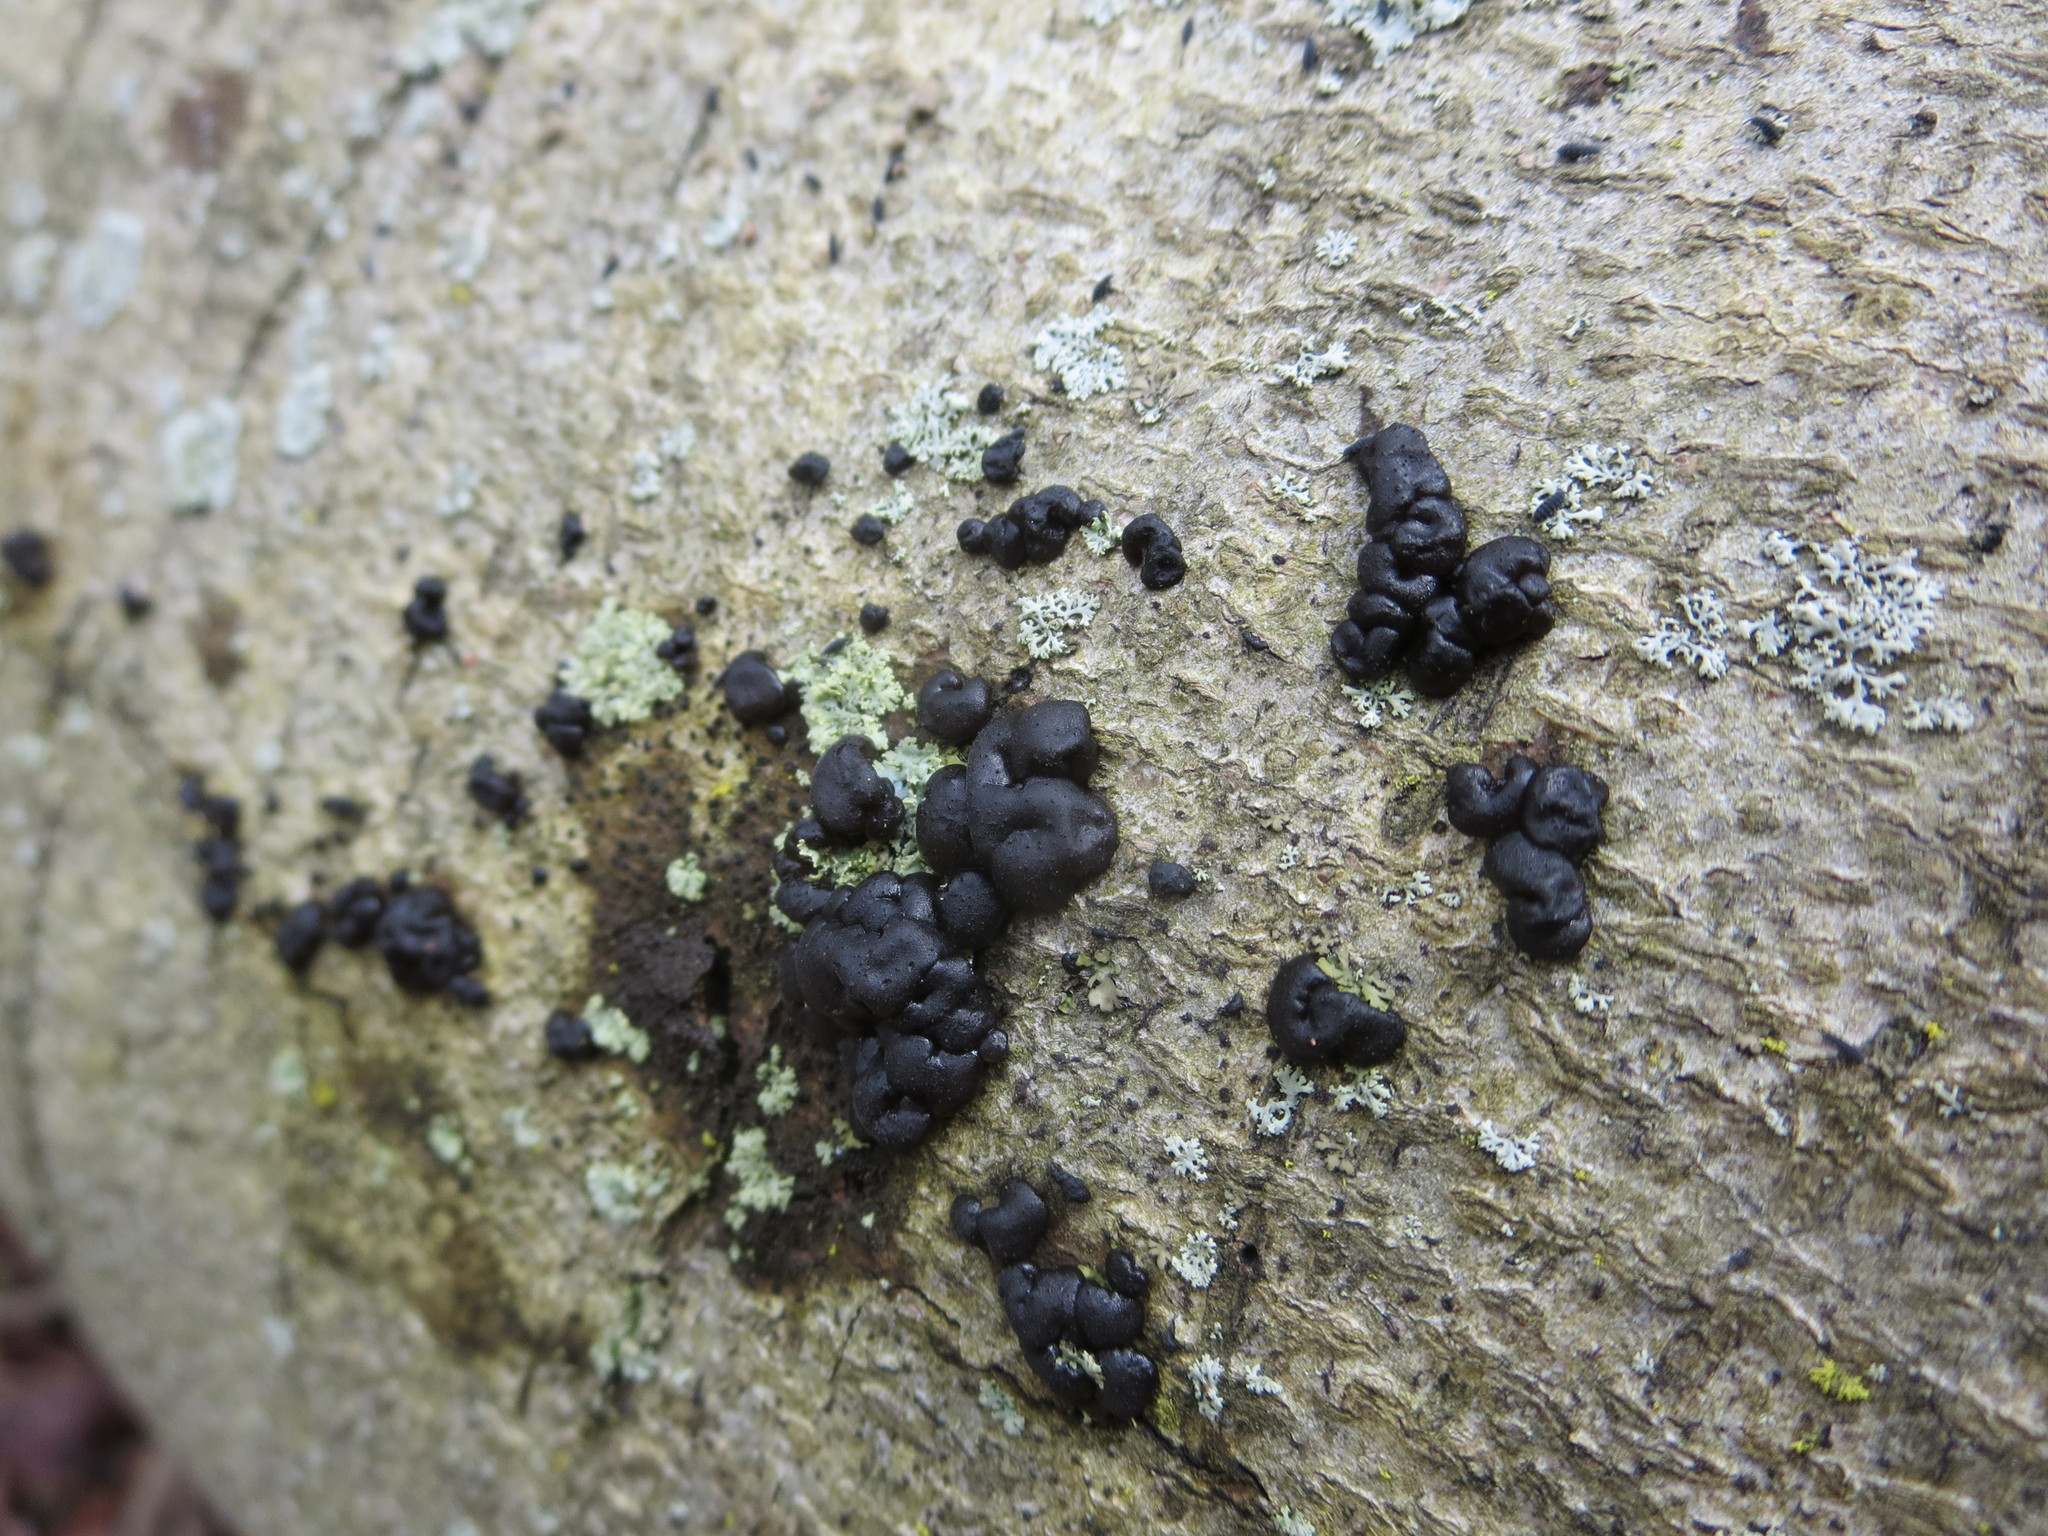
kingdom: Fungi
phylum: Basidiomycota
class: Agaricomycetes
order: Auriculariales
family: Auriculariaceae
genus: Exidia
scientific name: Exidia glandulosa
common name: Witches' butter
